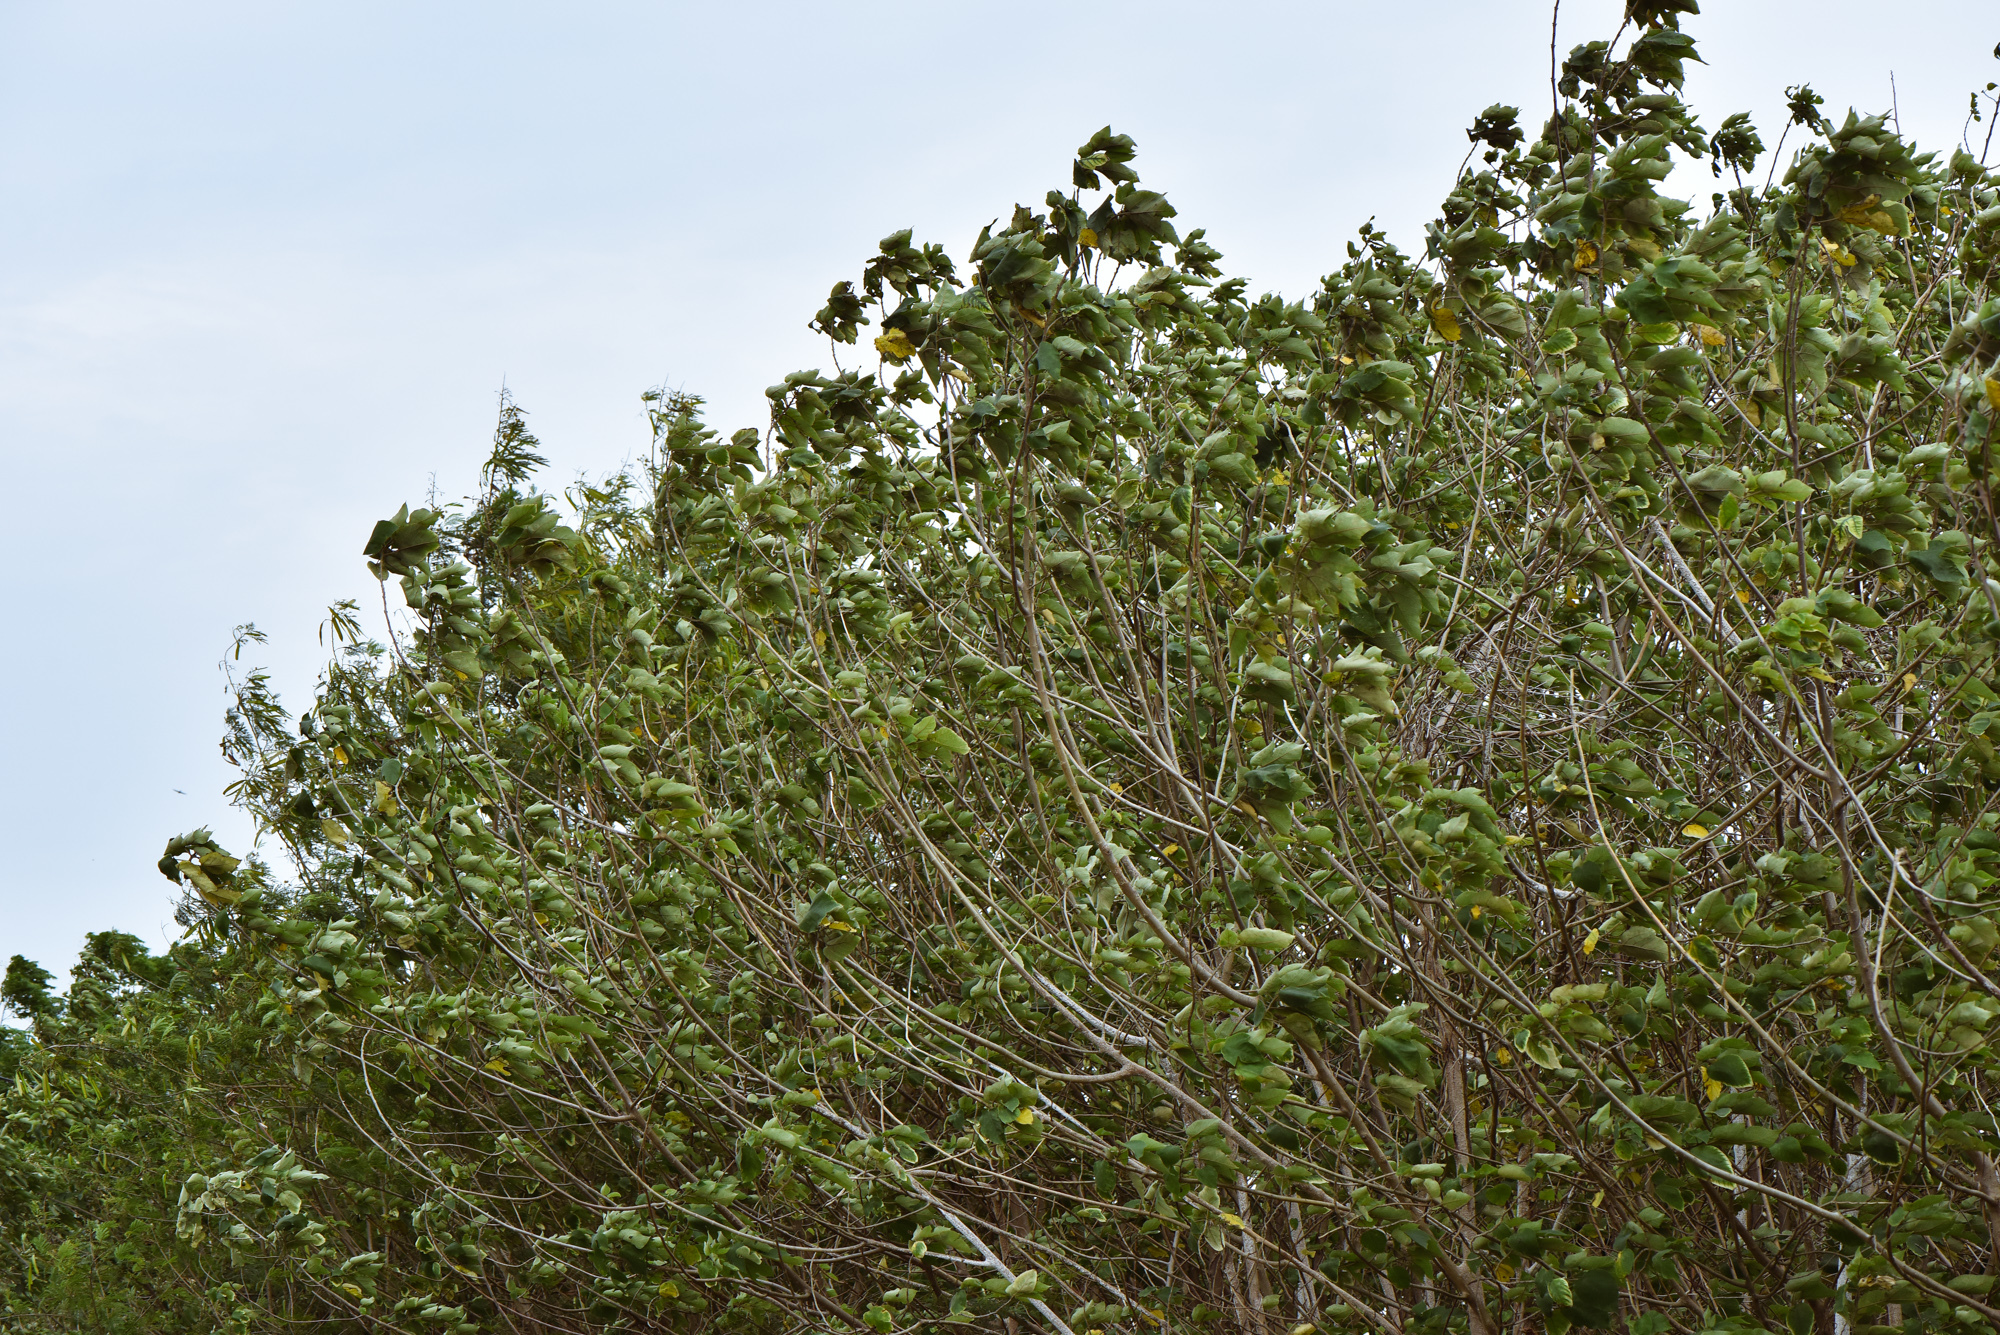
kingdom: Plantae
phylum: Tracheophyta
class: Magnoliopsida
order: Rosales
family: Moraceae
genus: Broussonetia
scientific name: Broussonetia papyrifera
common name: Paper mulberry
